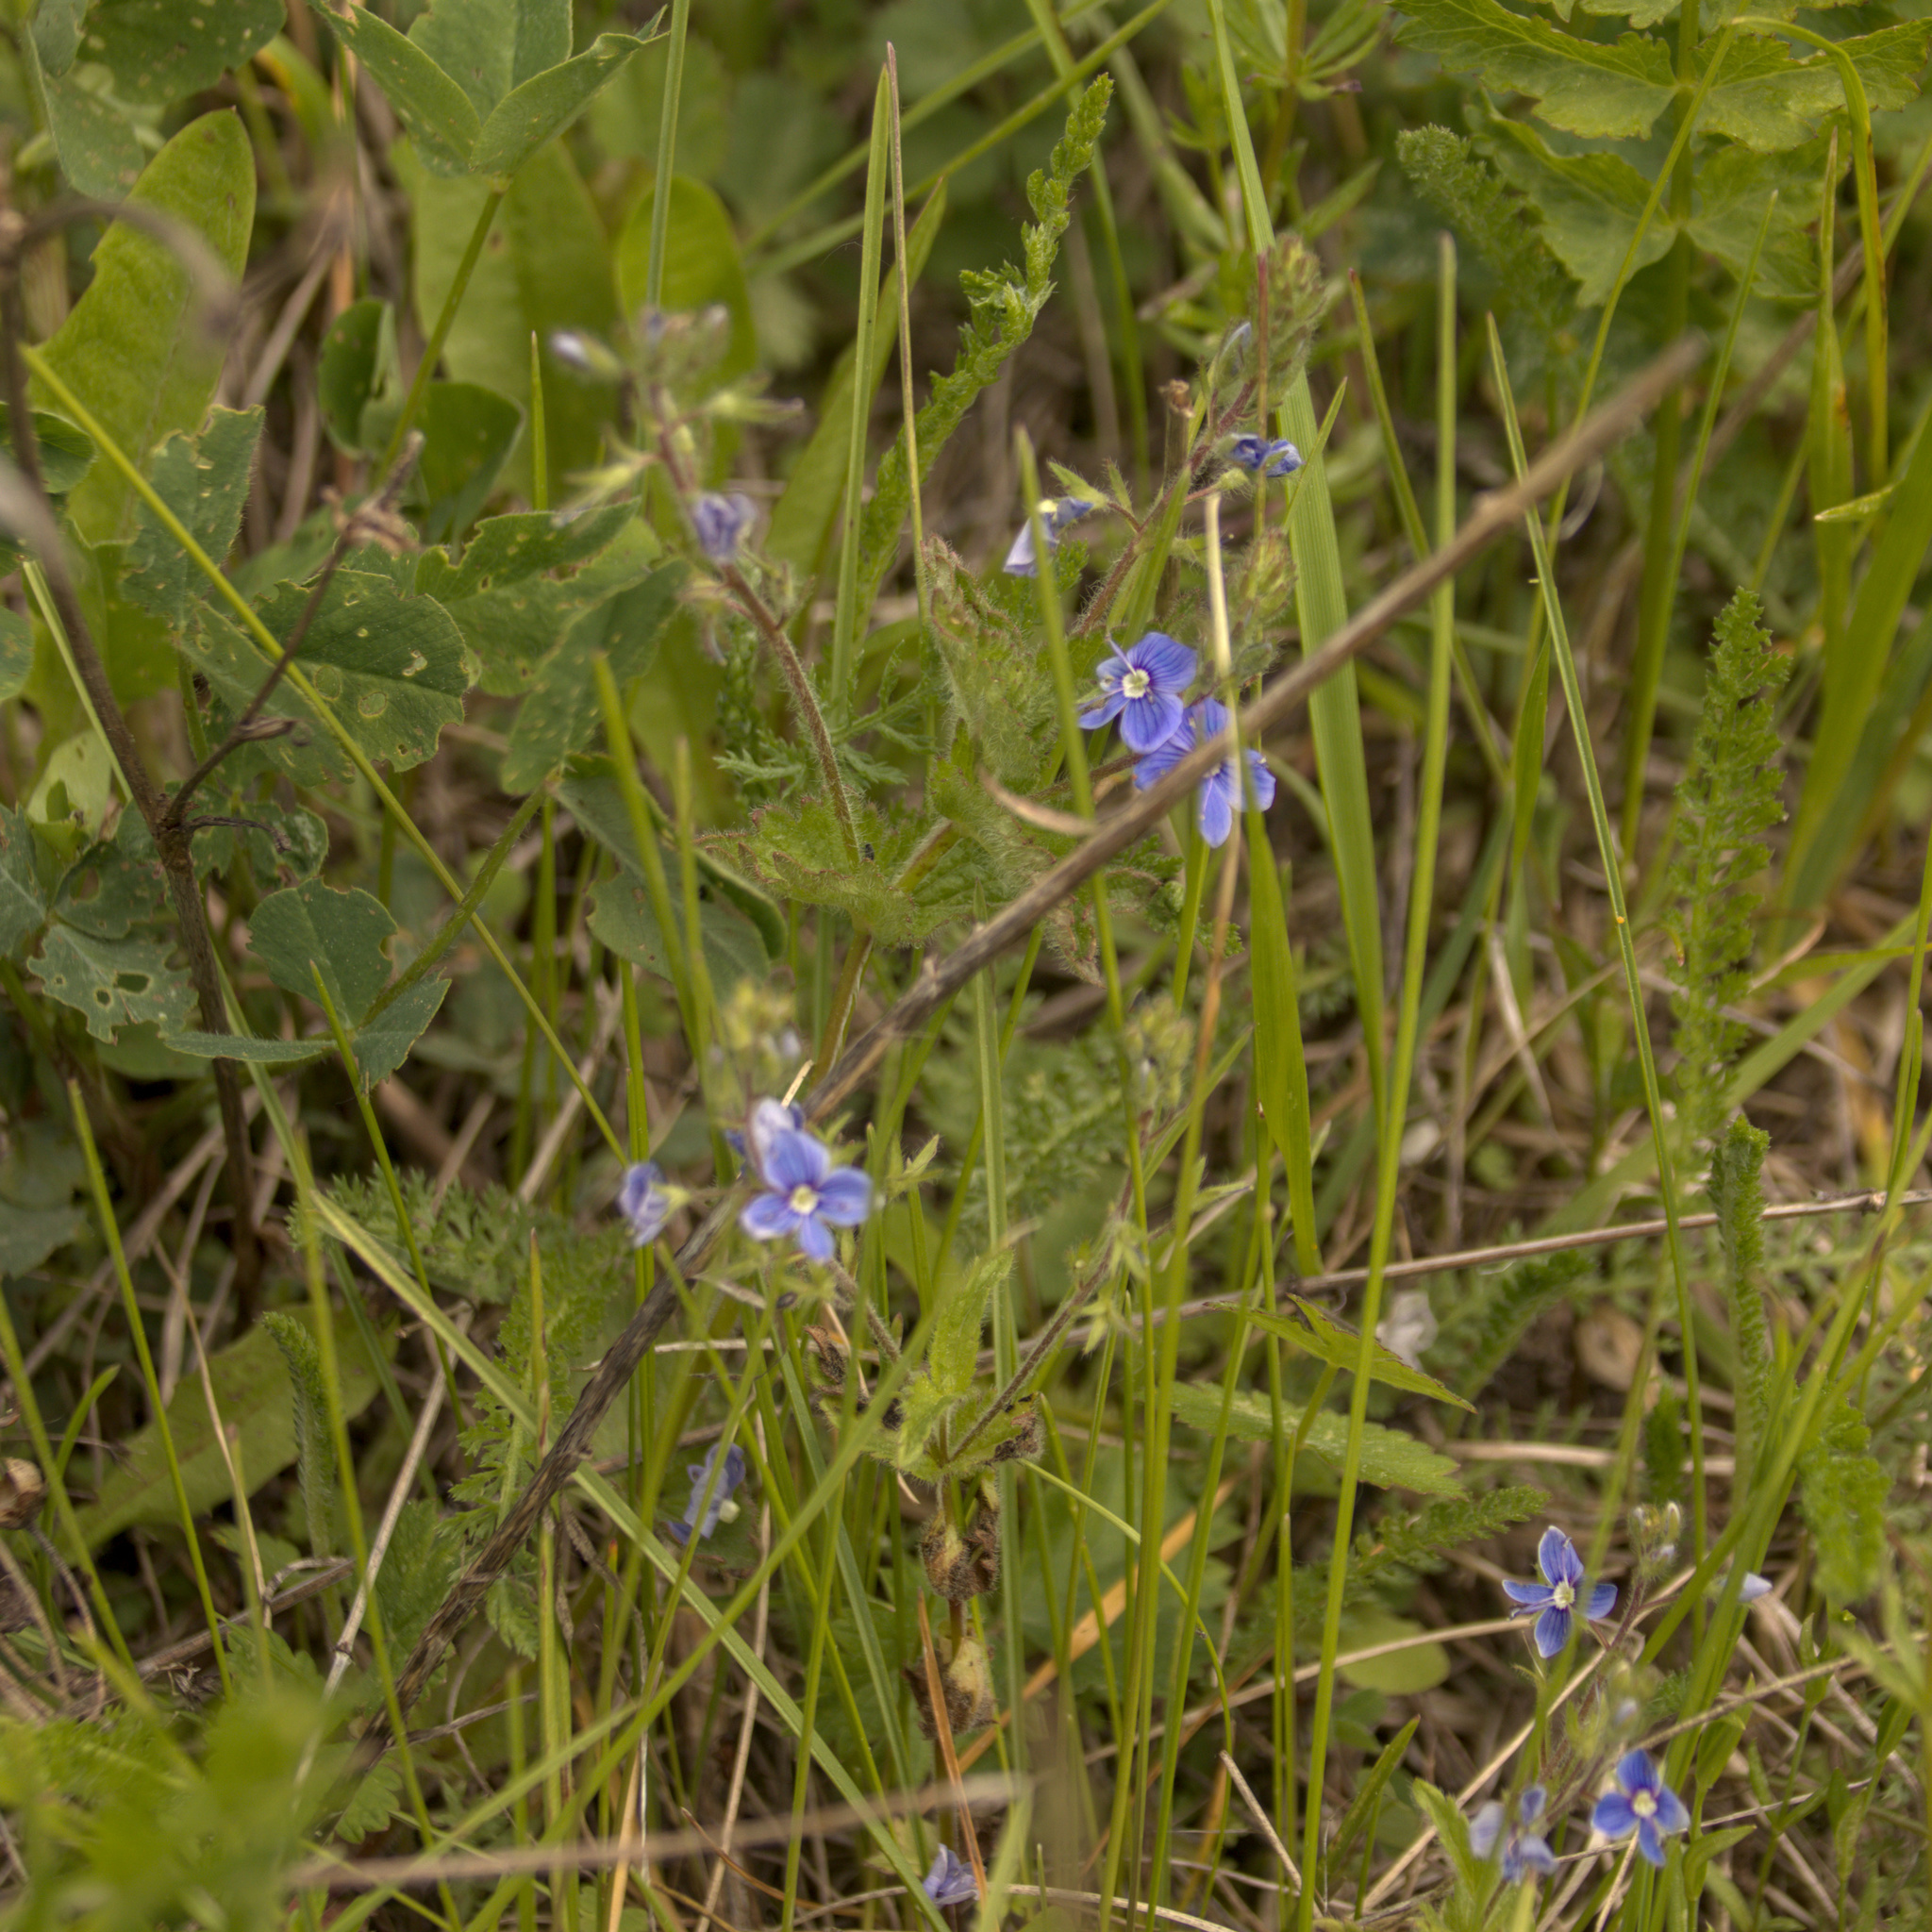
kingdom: Plantae
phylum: Tracheophyta
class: Magnoliopsida
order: Lamiales
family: Plantaginaceae
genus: Veronica
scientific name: Veronica chamaedrys
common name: Germander speedwell
